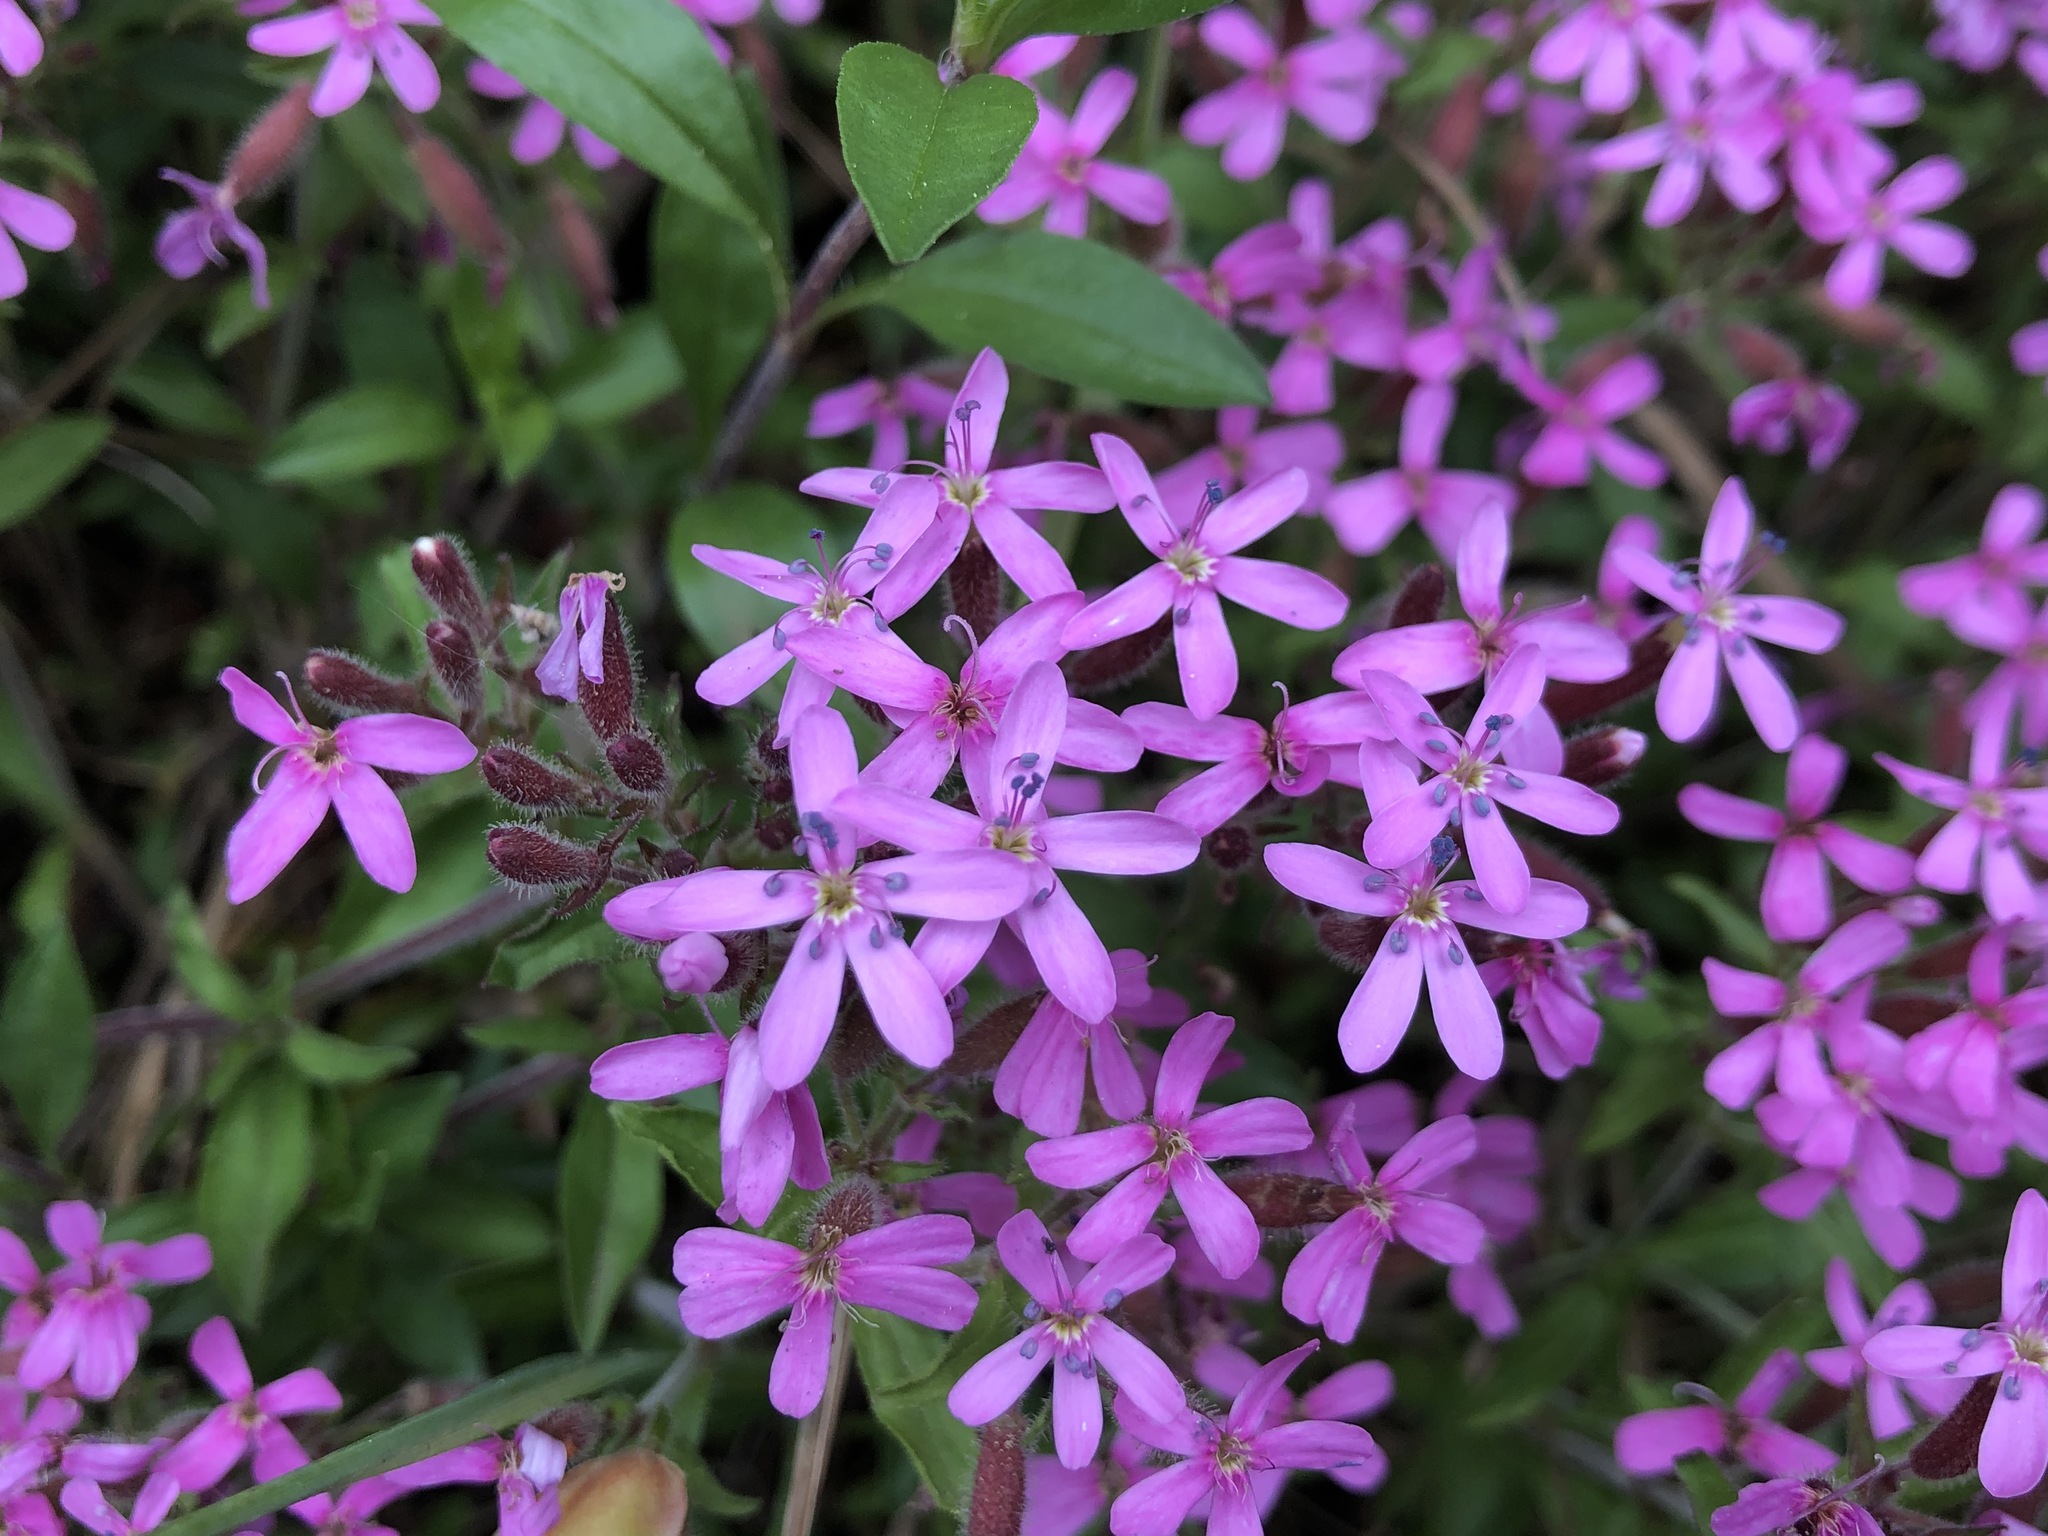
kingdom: Plantae
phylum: Tracheophyta
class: Magnoliopsida
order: Caryophyllales
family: Caryophyllaceae
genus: Saponaria
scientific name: Saponaria ocymoides
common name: Rock soapwort
